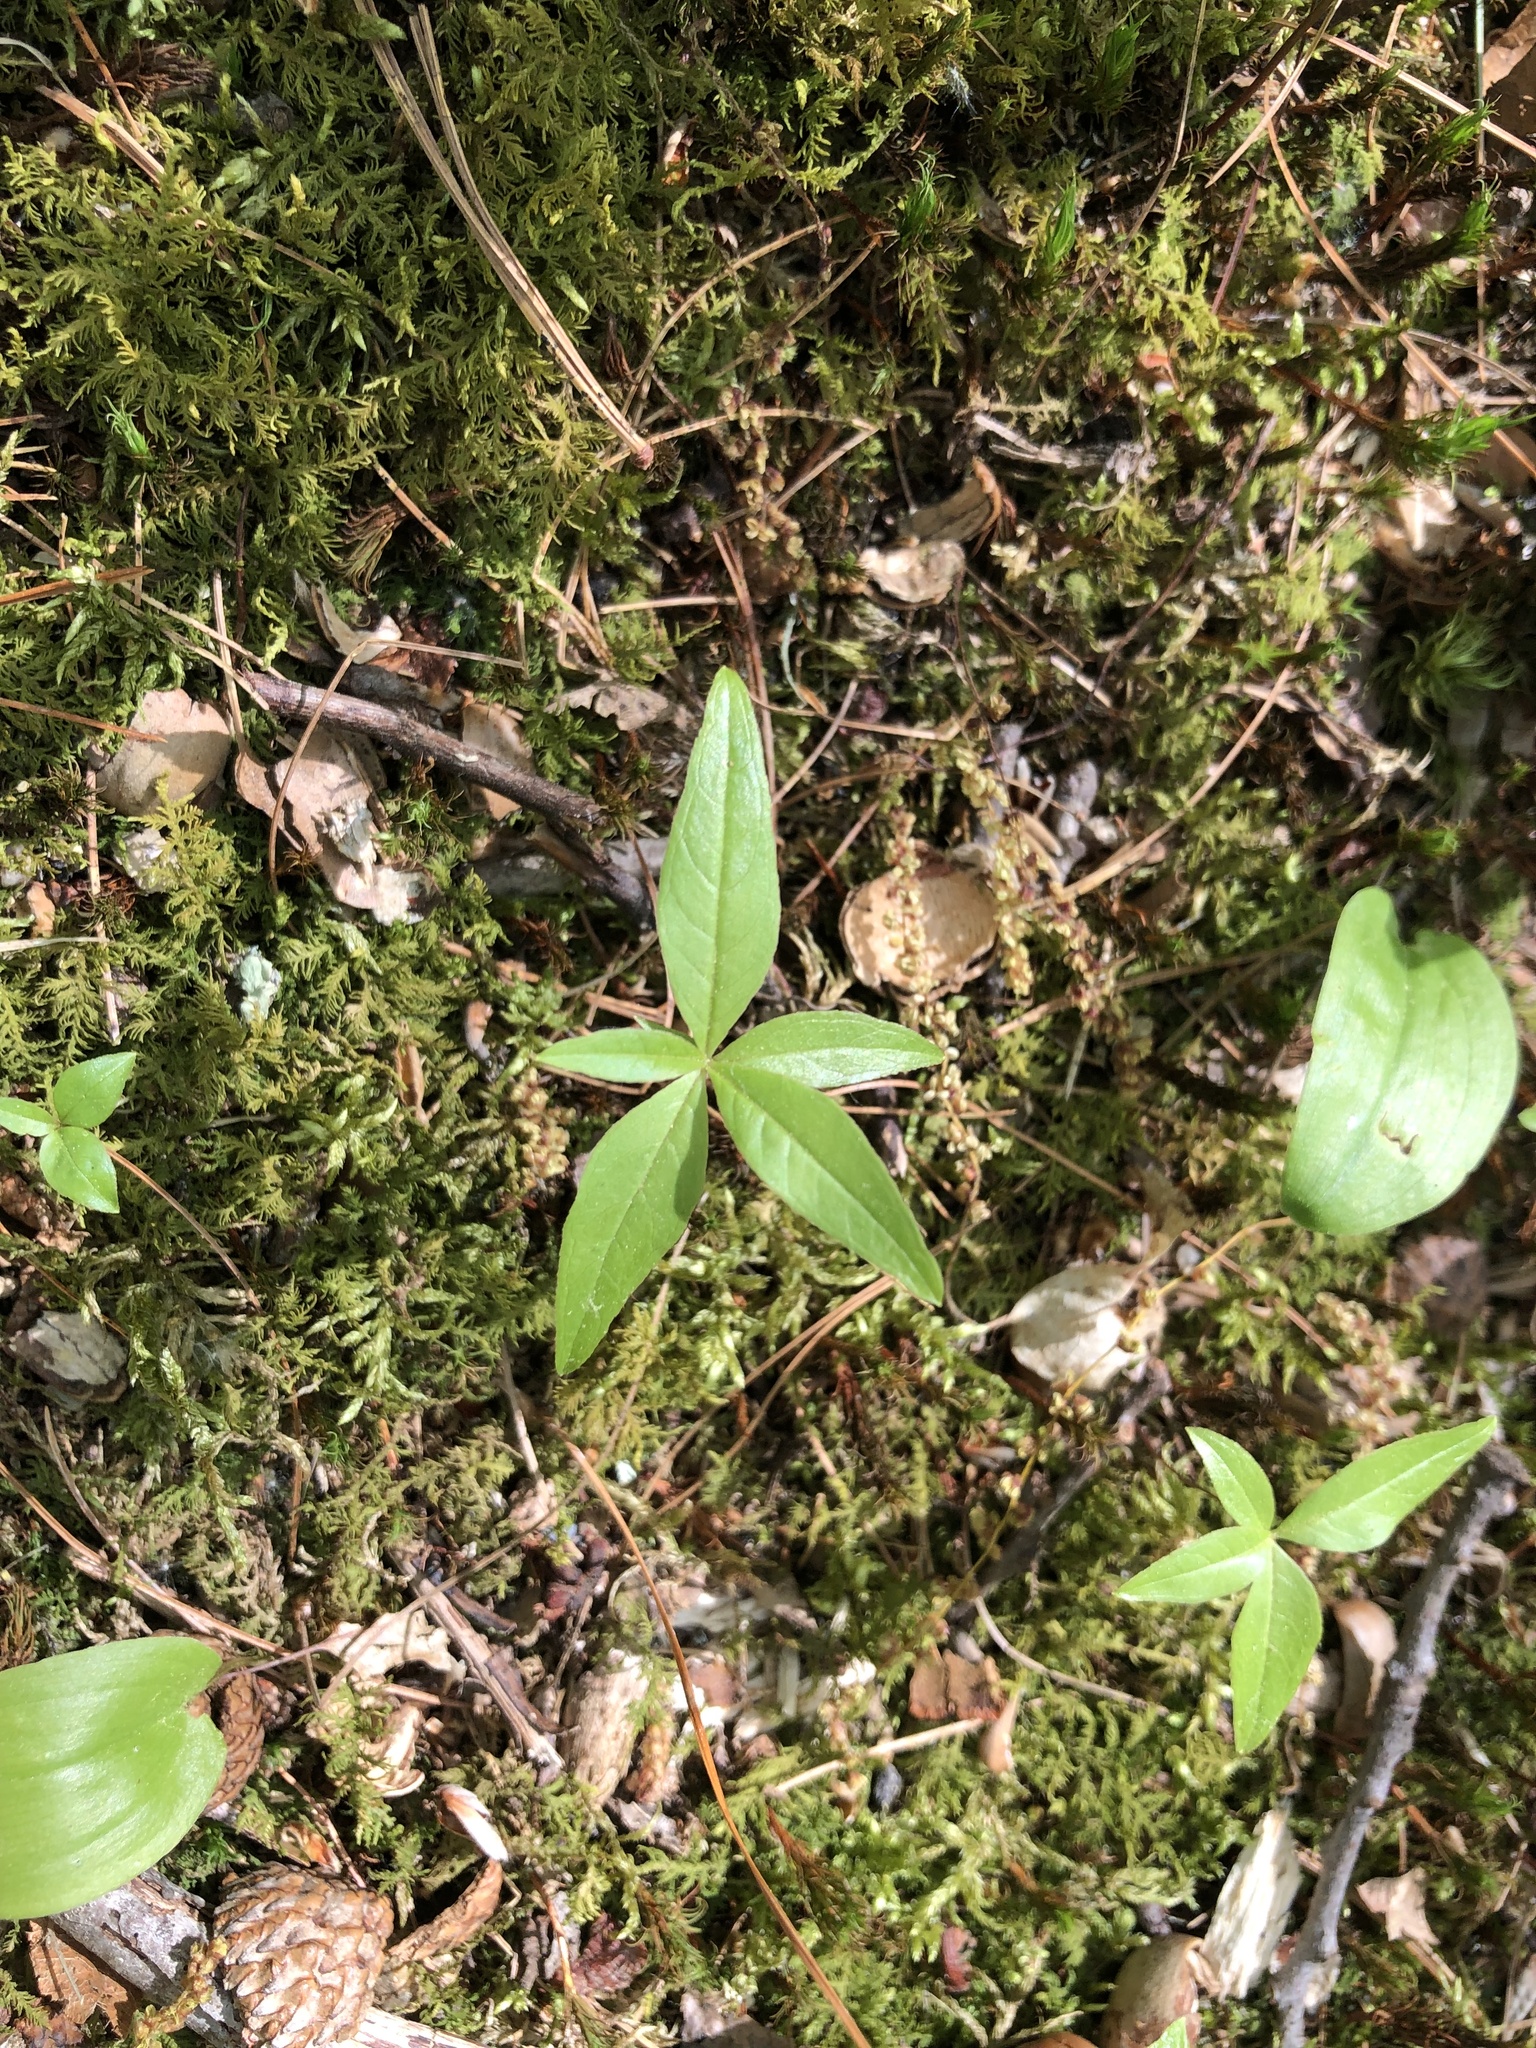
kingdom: Plantae
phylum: Tracheophyta
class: Magnoliopsida
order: Ericales
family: Primulaceae
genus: Lysimachia
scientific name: Lysimachia borealis
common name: American starflower
